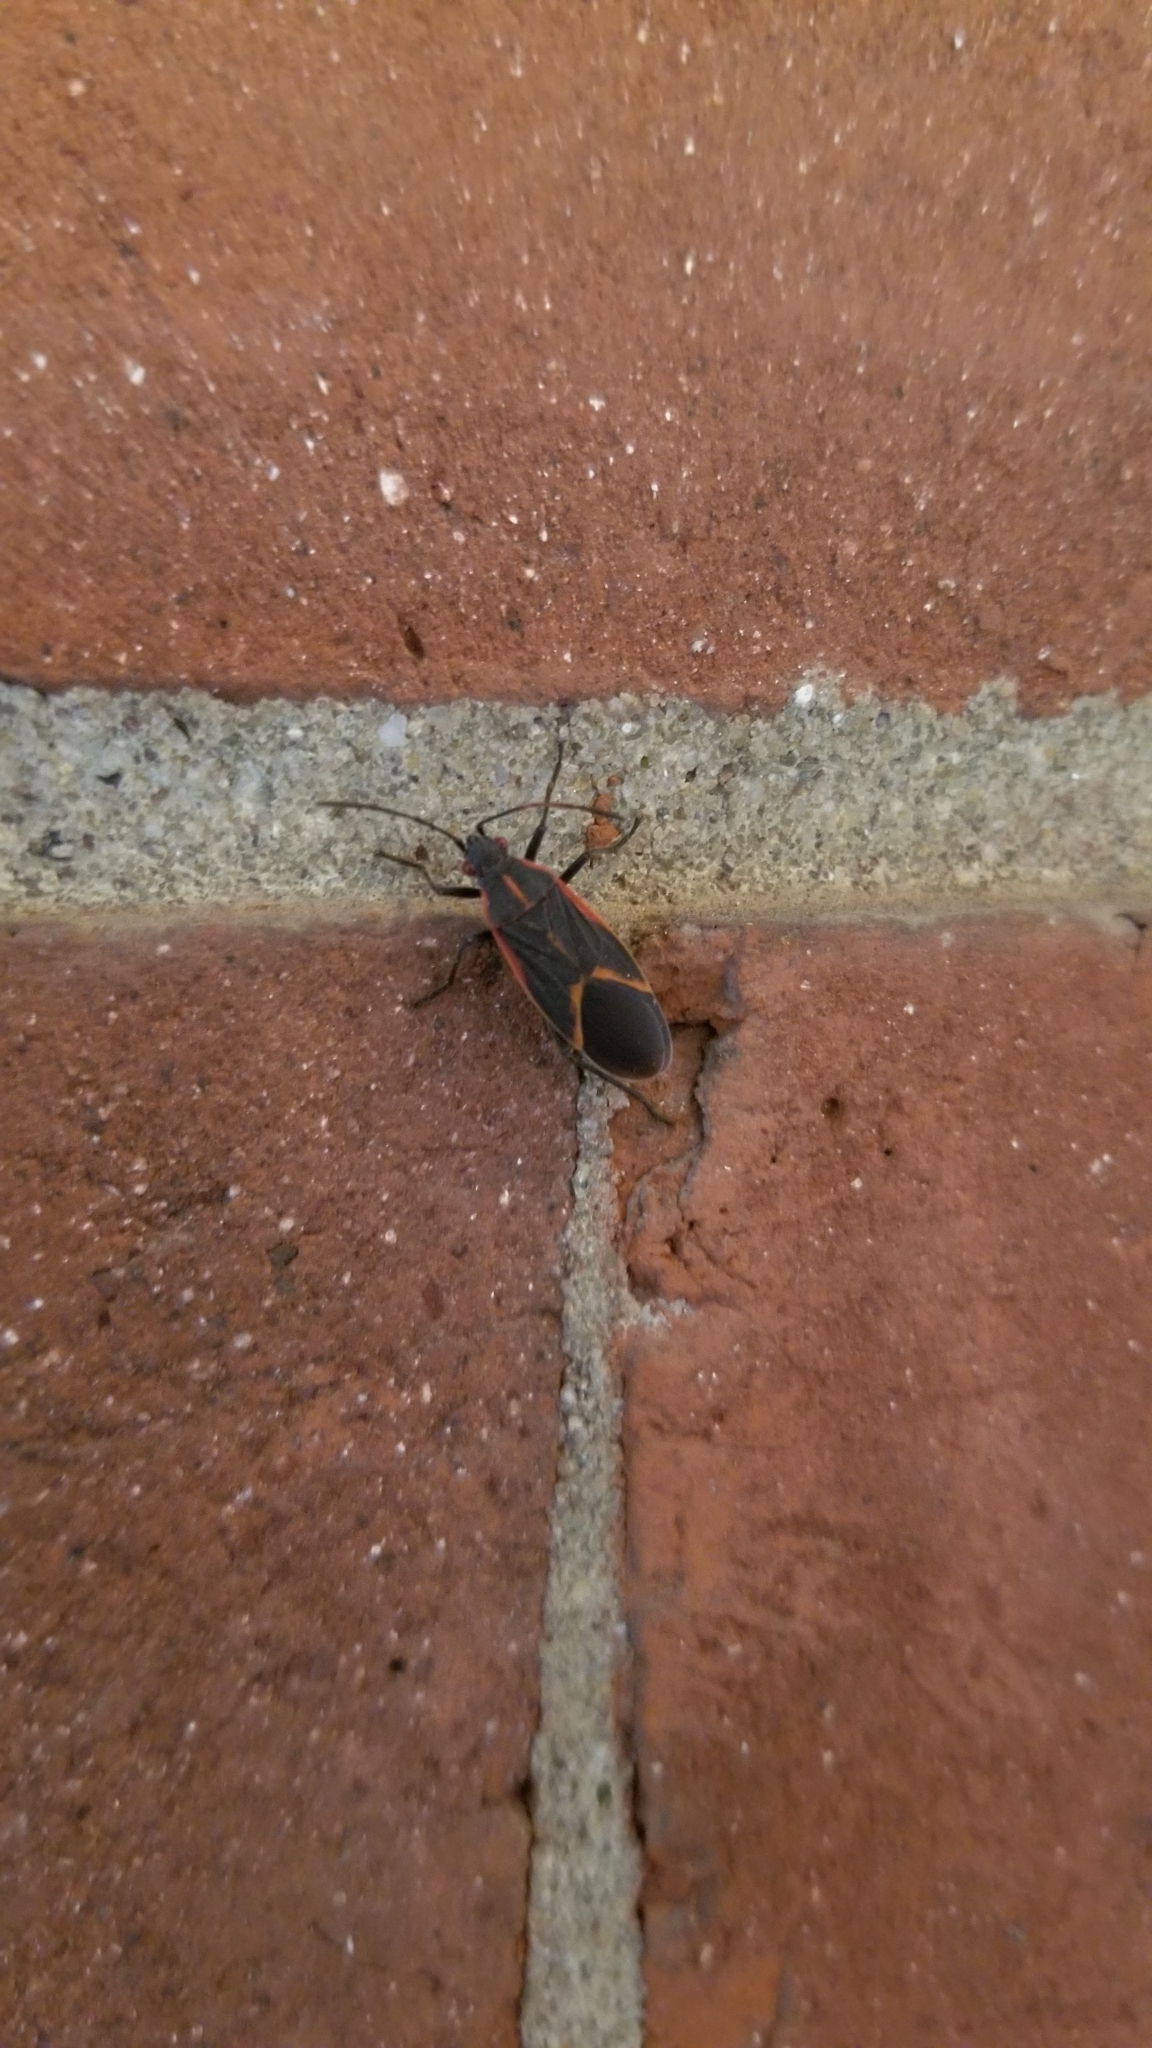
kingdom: Animalia
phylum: Arthropoda
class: Insecta
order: Hemiptera
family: Rhopalidae
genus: Boisea
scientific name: Boisea trivittata
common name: Boxelder bug
